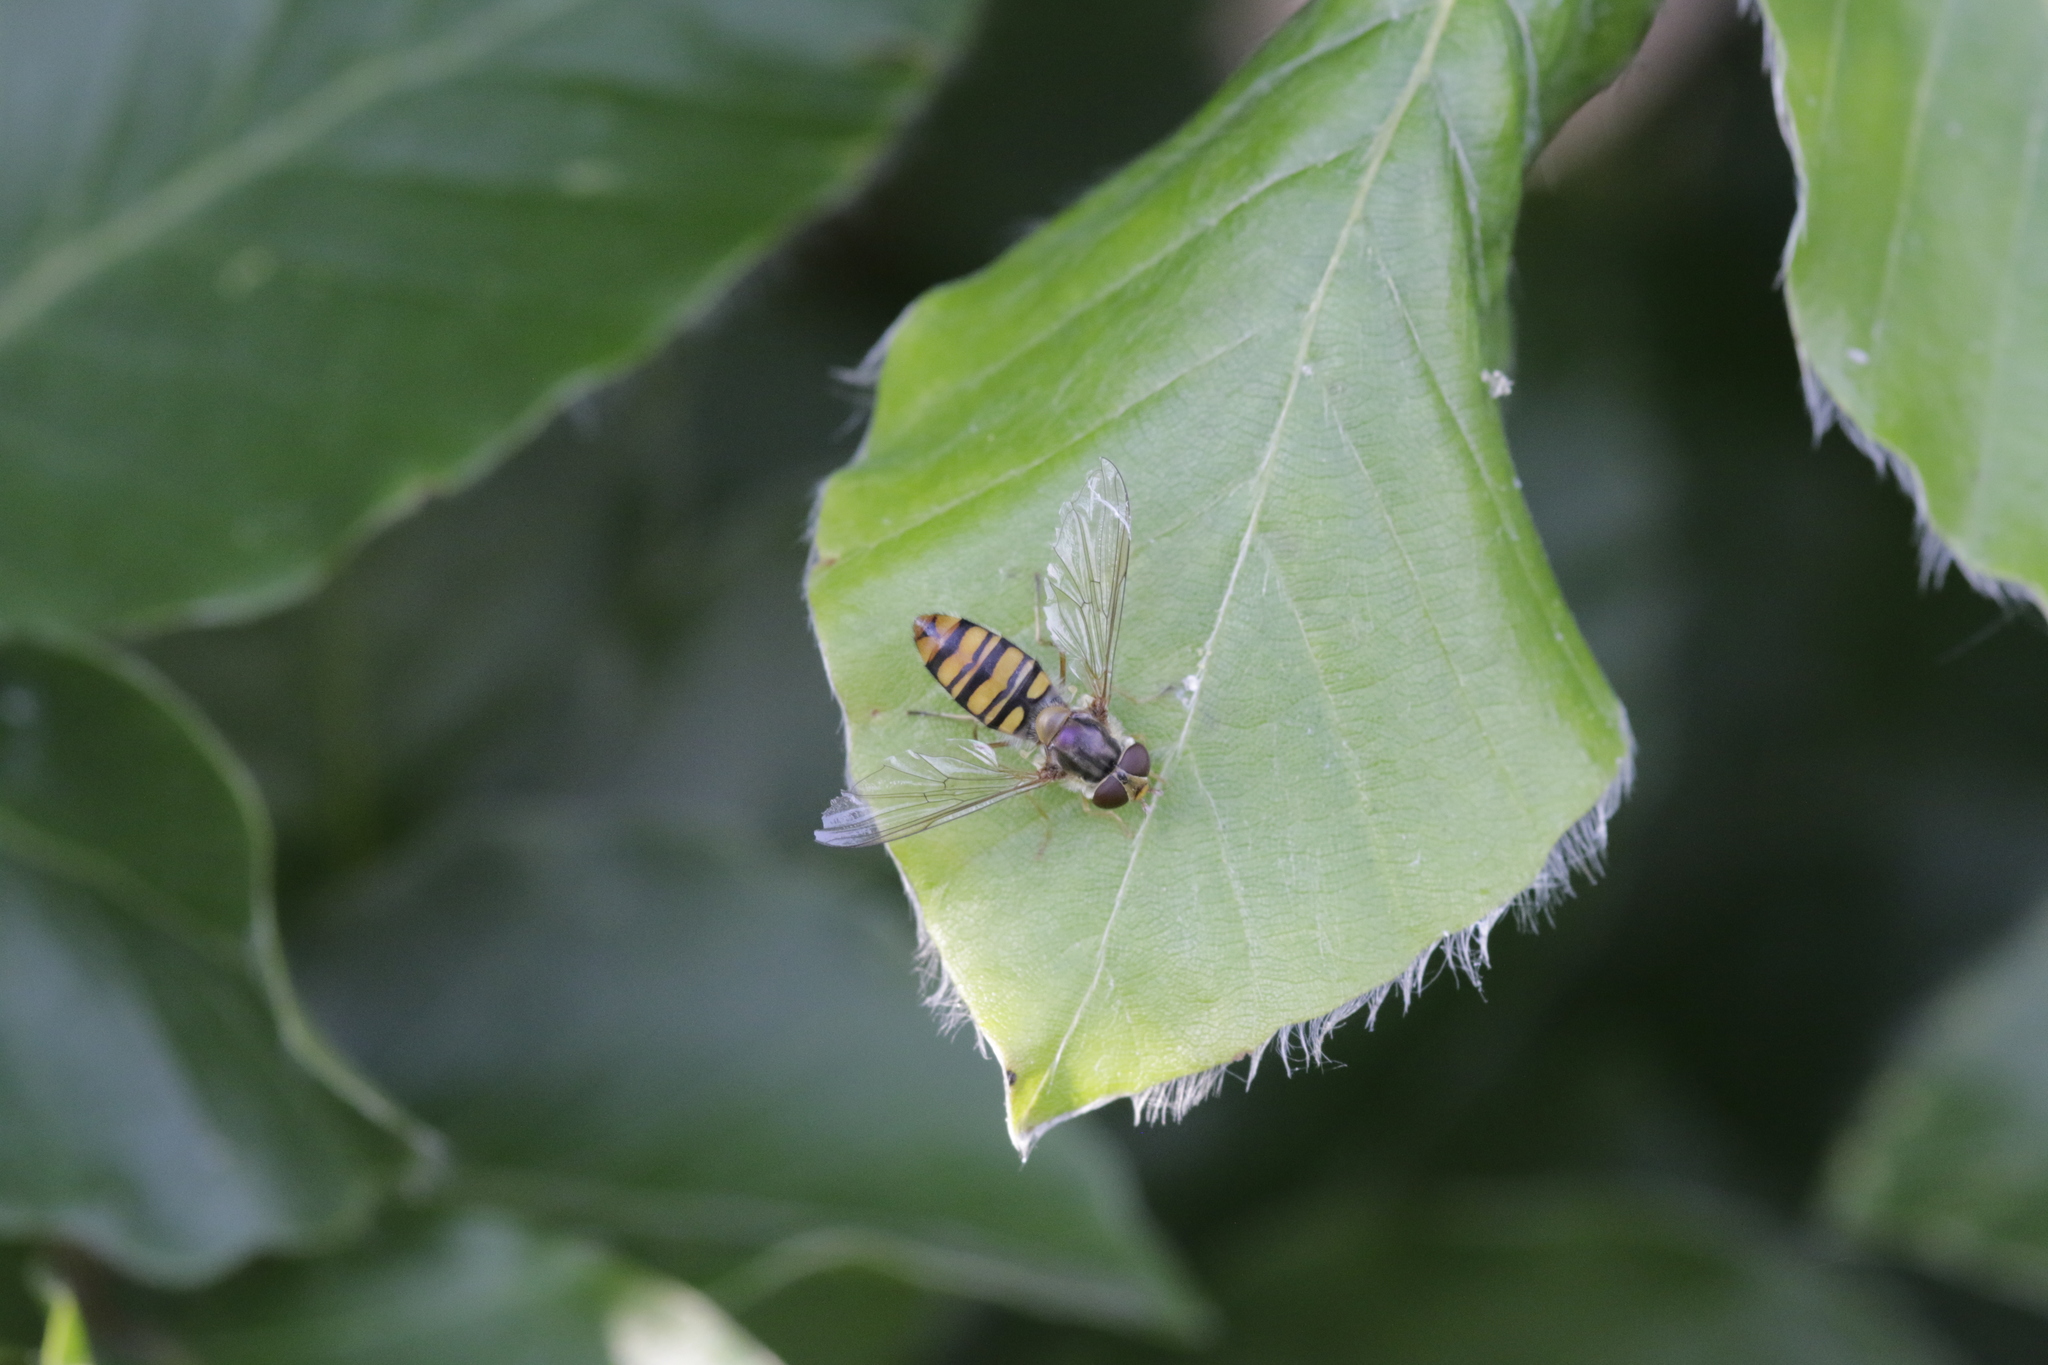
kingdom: Animalia
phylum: Arthropoda
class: Insecta
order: Diptera
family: Syrphidae
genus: Episyrphus
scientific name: Episyrphus balteatus
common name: Marmalade hoverfly
